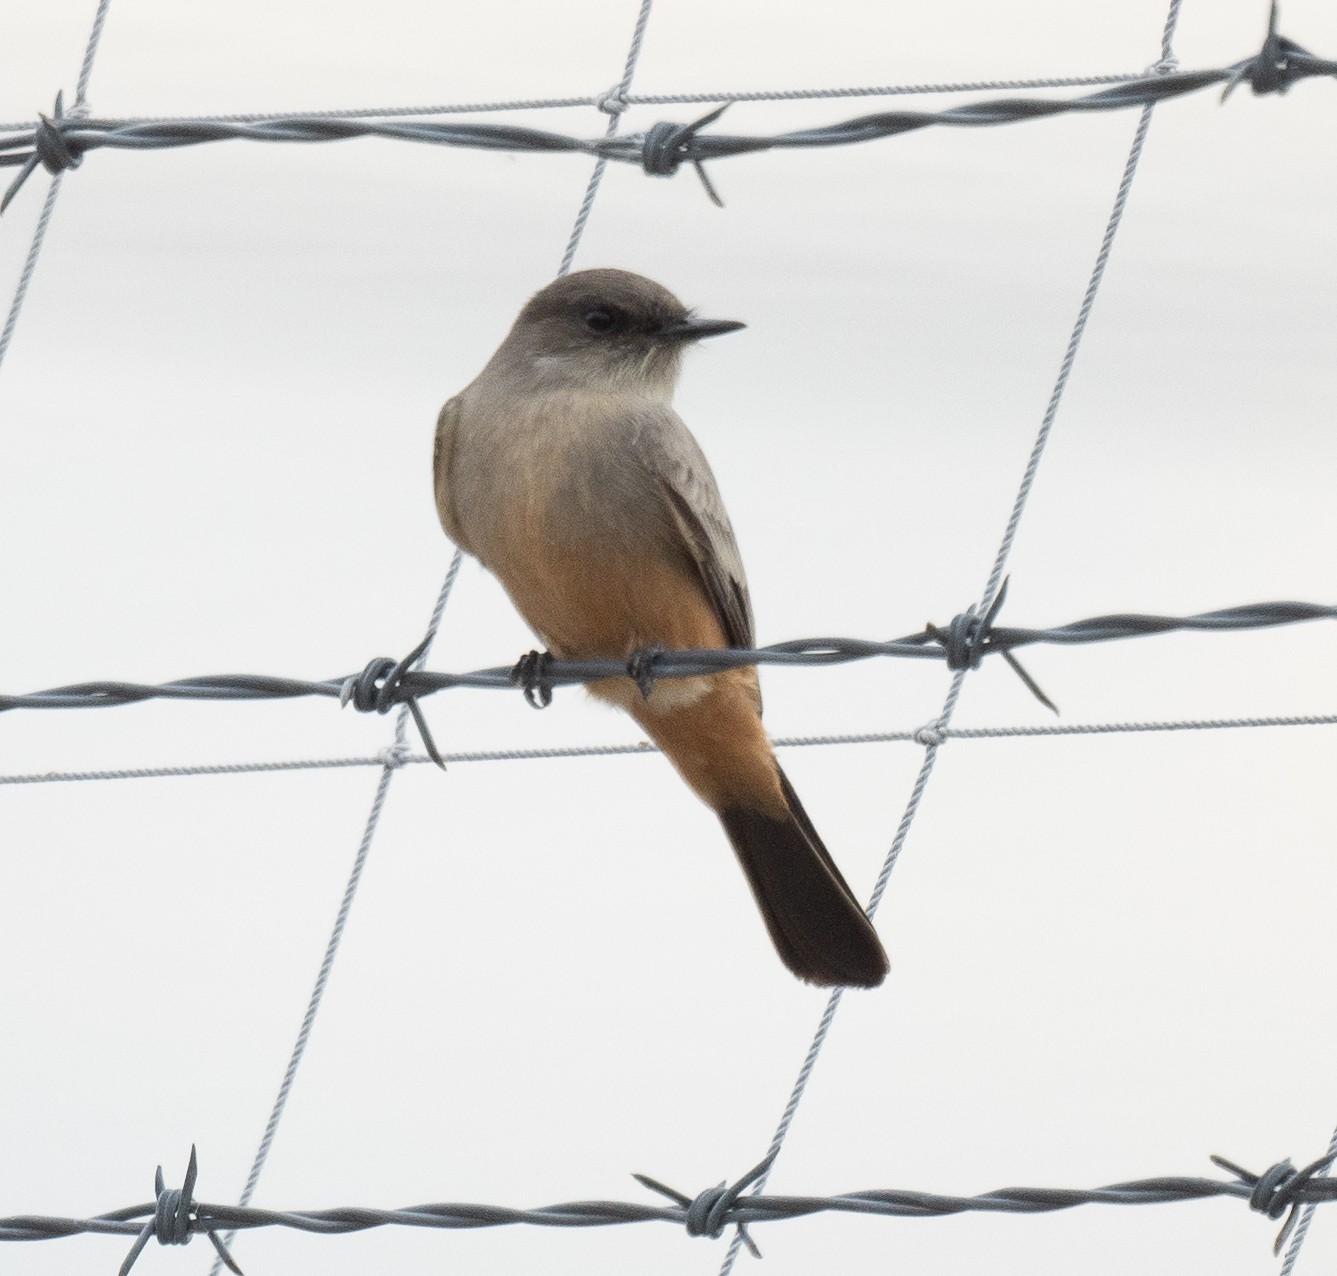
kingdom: Animalia
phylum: Chordata
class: Aves
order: Passeriformes
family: Tyrannidae
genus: Sayornis
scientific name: Sayornis saya
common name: Say's phoebe
